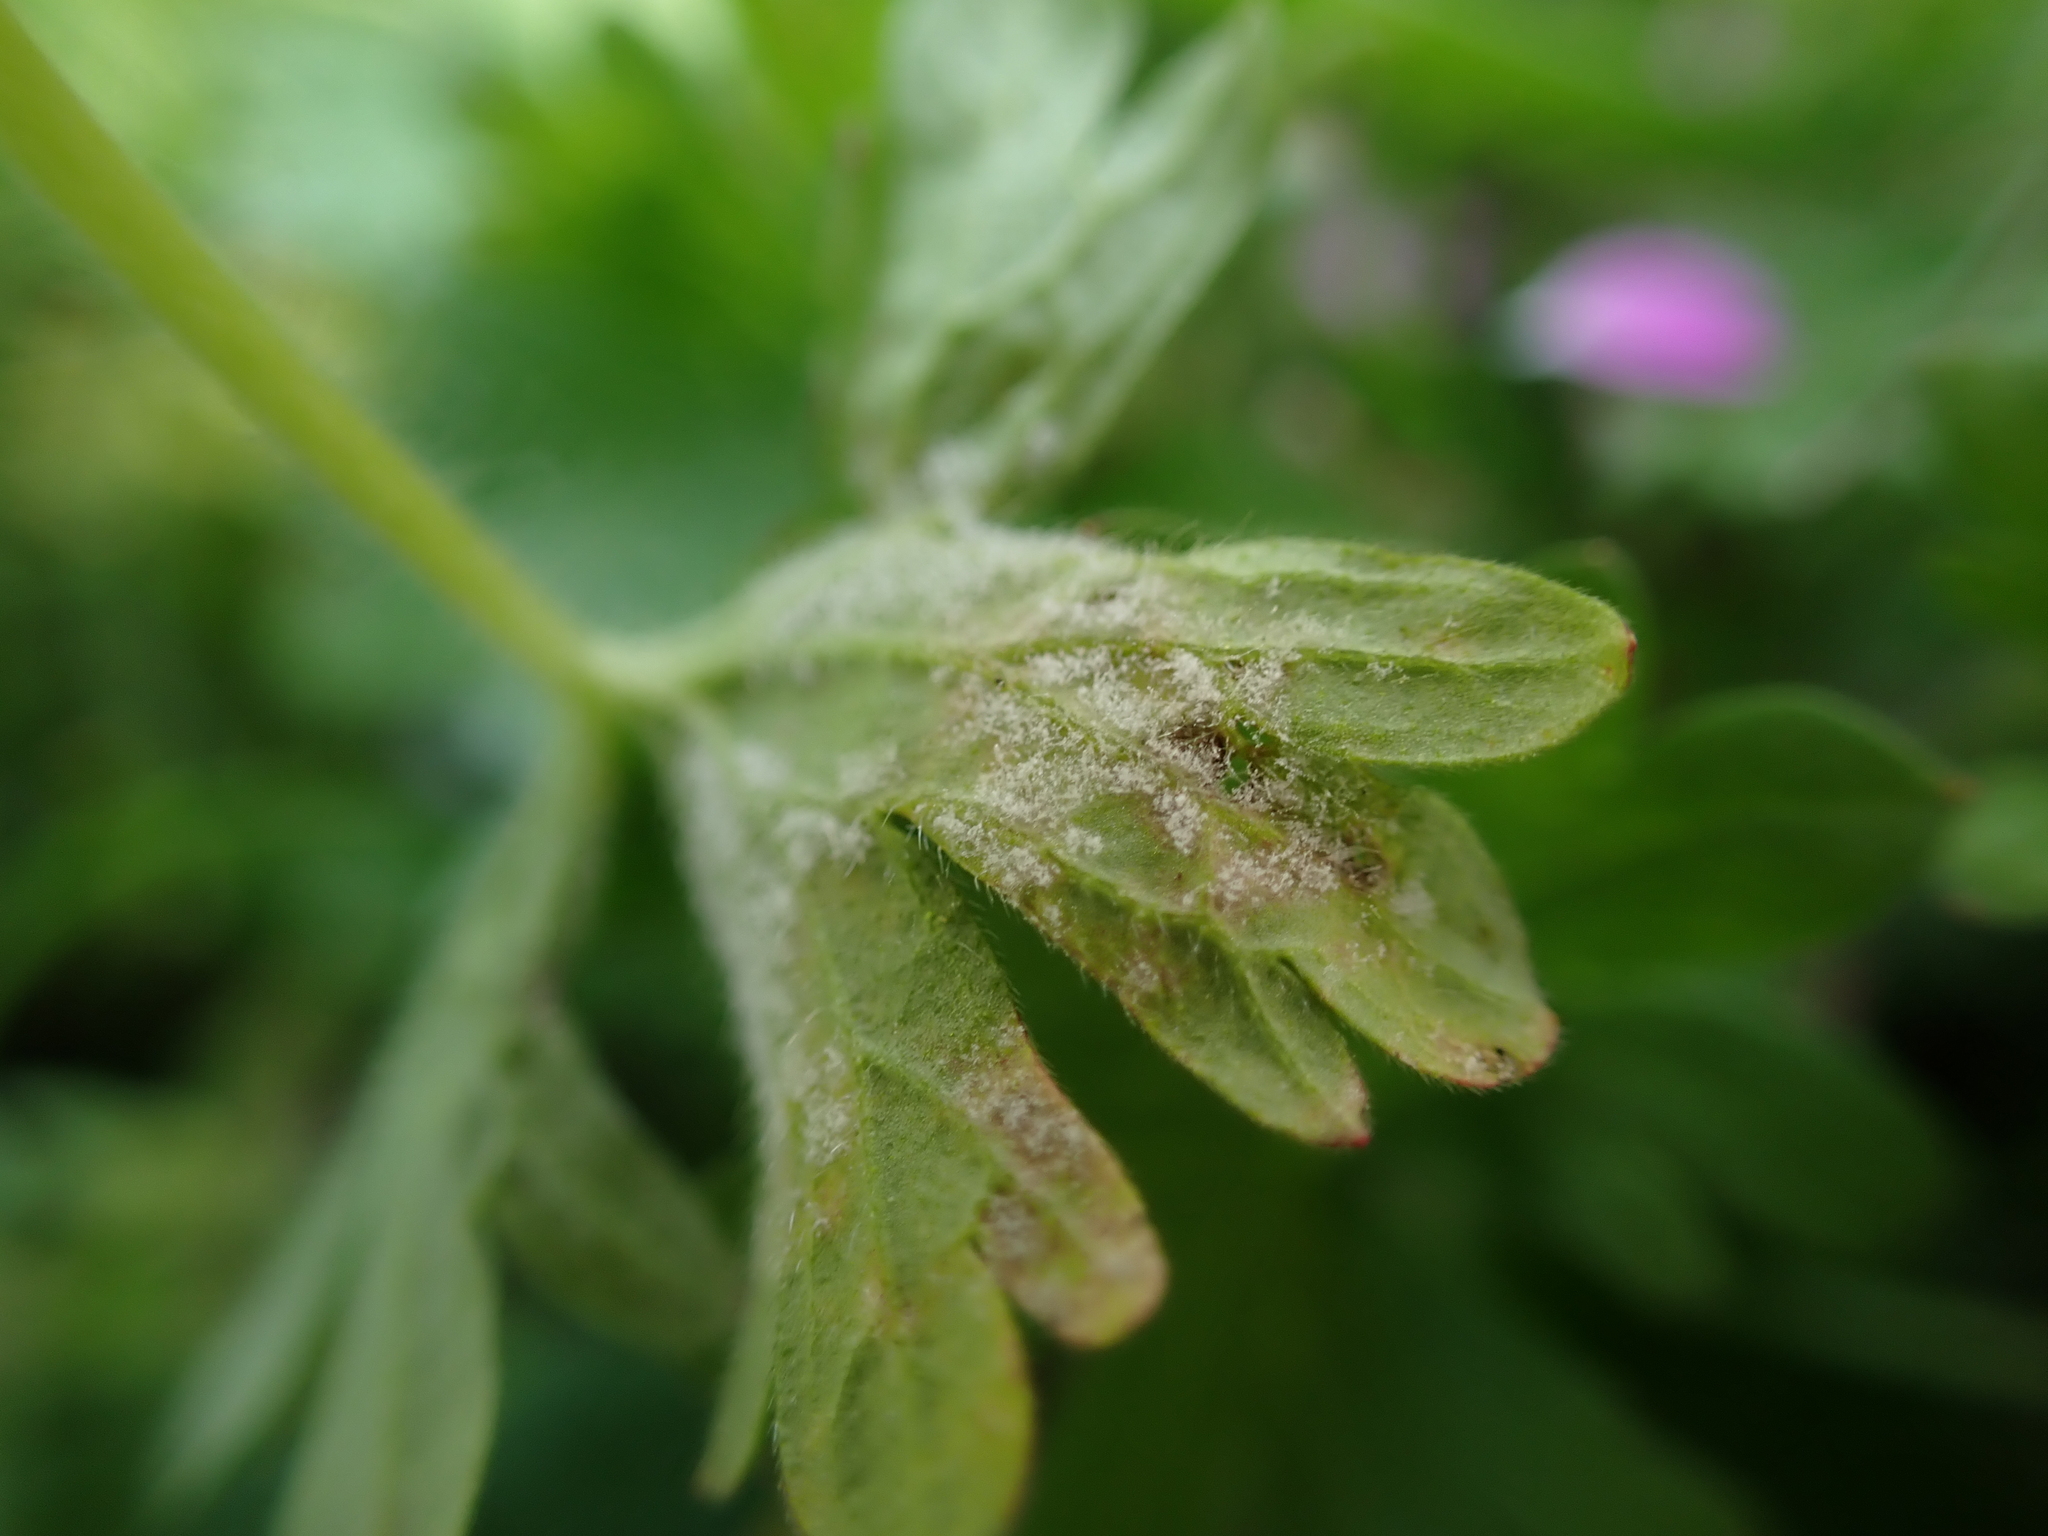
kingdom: Chromista
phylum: Oomycota
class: Peronosporea
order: Peronosporales
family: Peronosporaceae
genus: Plasmopara
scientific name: Plasmopara wilsonii
